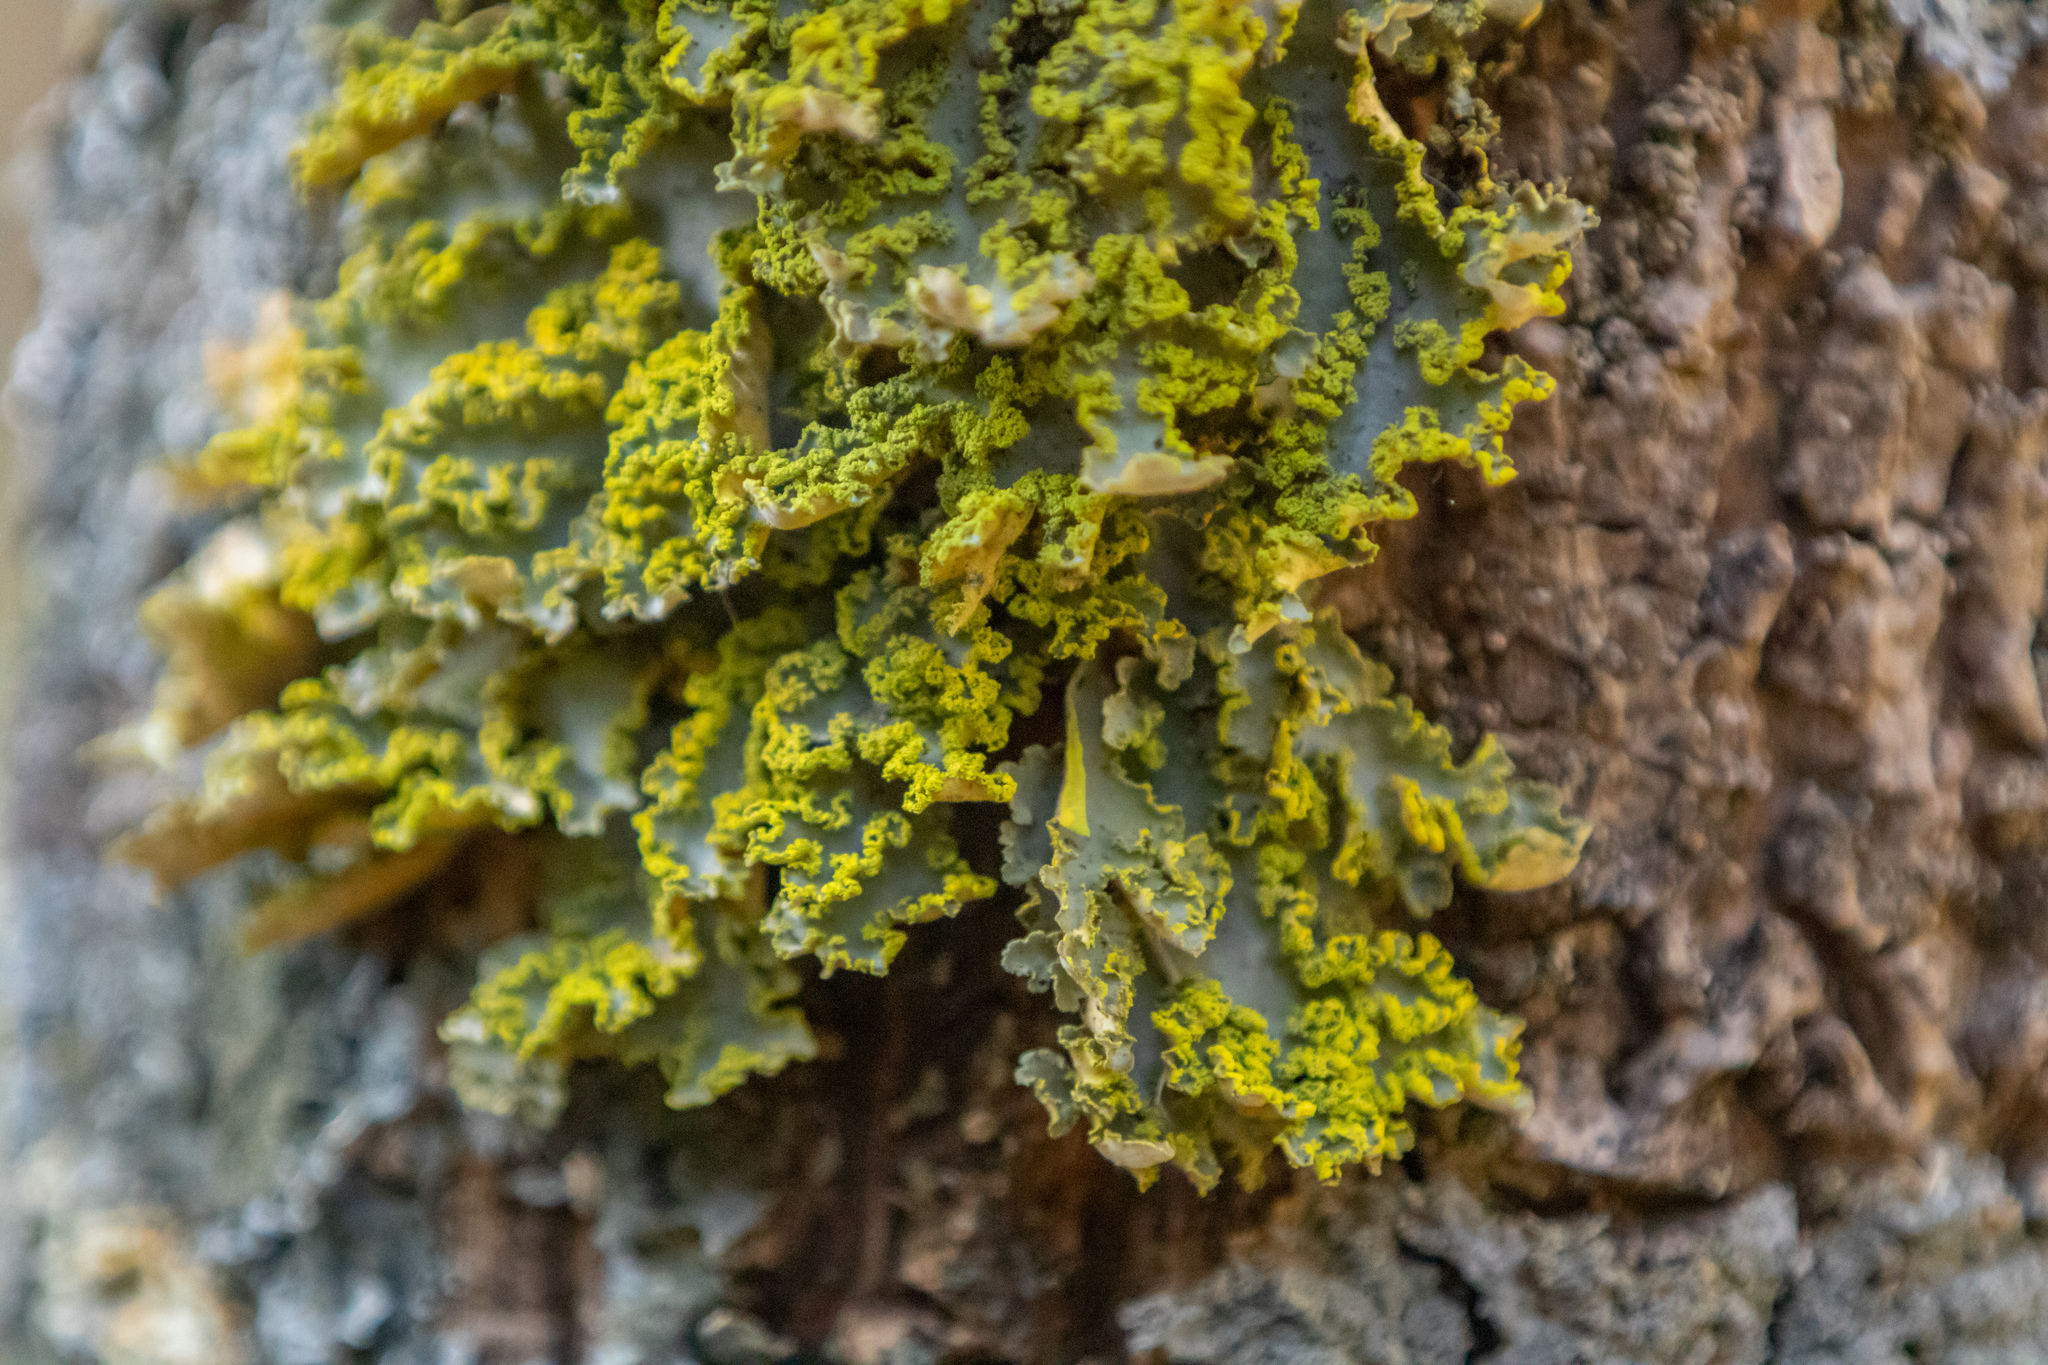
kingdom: Fungi
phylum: Ascomycota
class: Lecanoromycetes
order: Peltigerales
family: Lobariaceae
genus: Crocodia
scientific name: Crocodia poculifera
